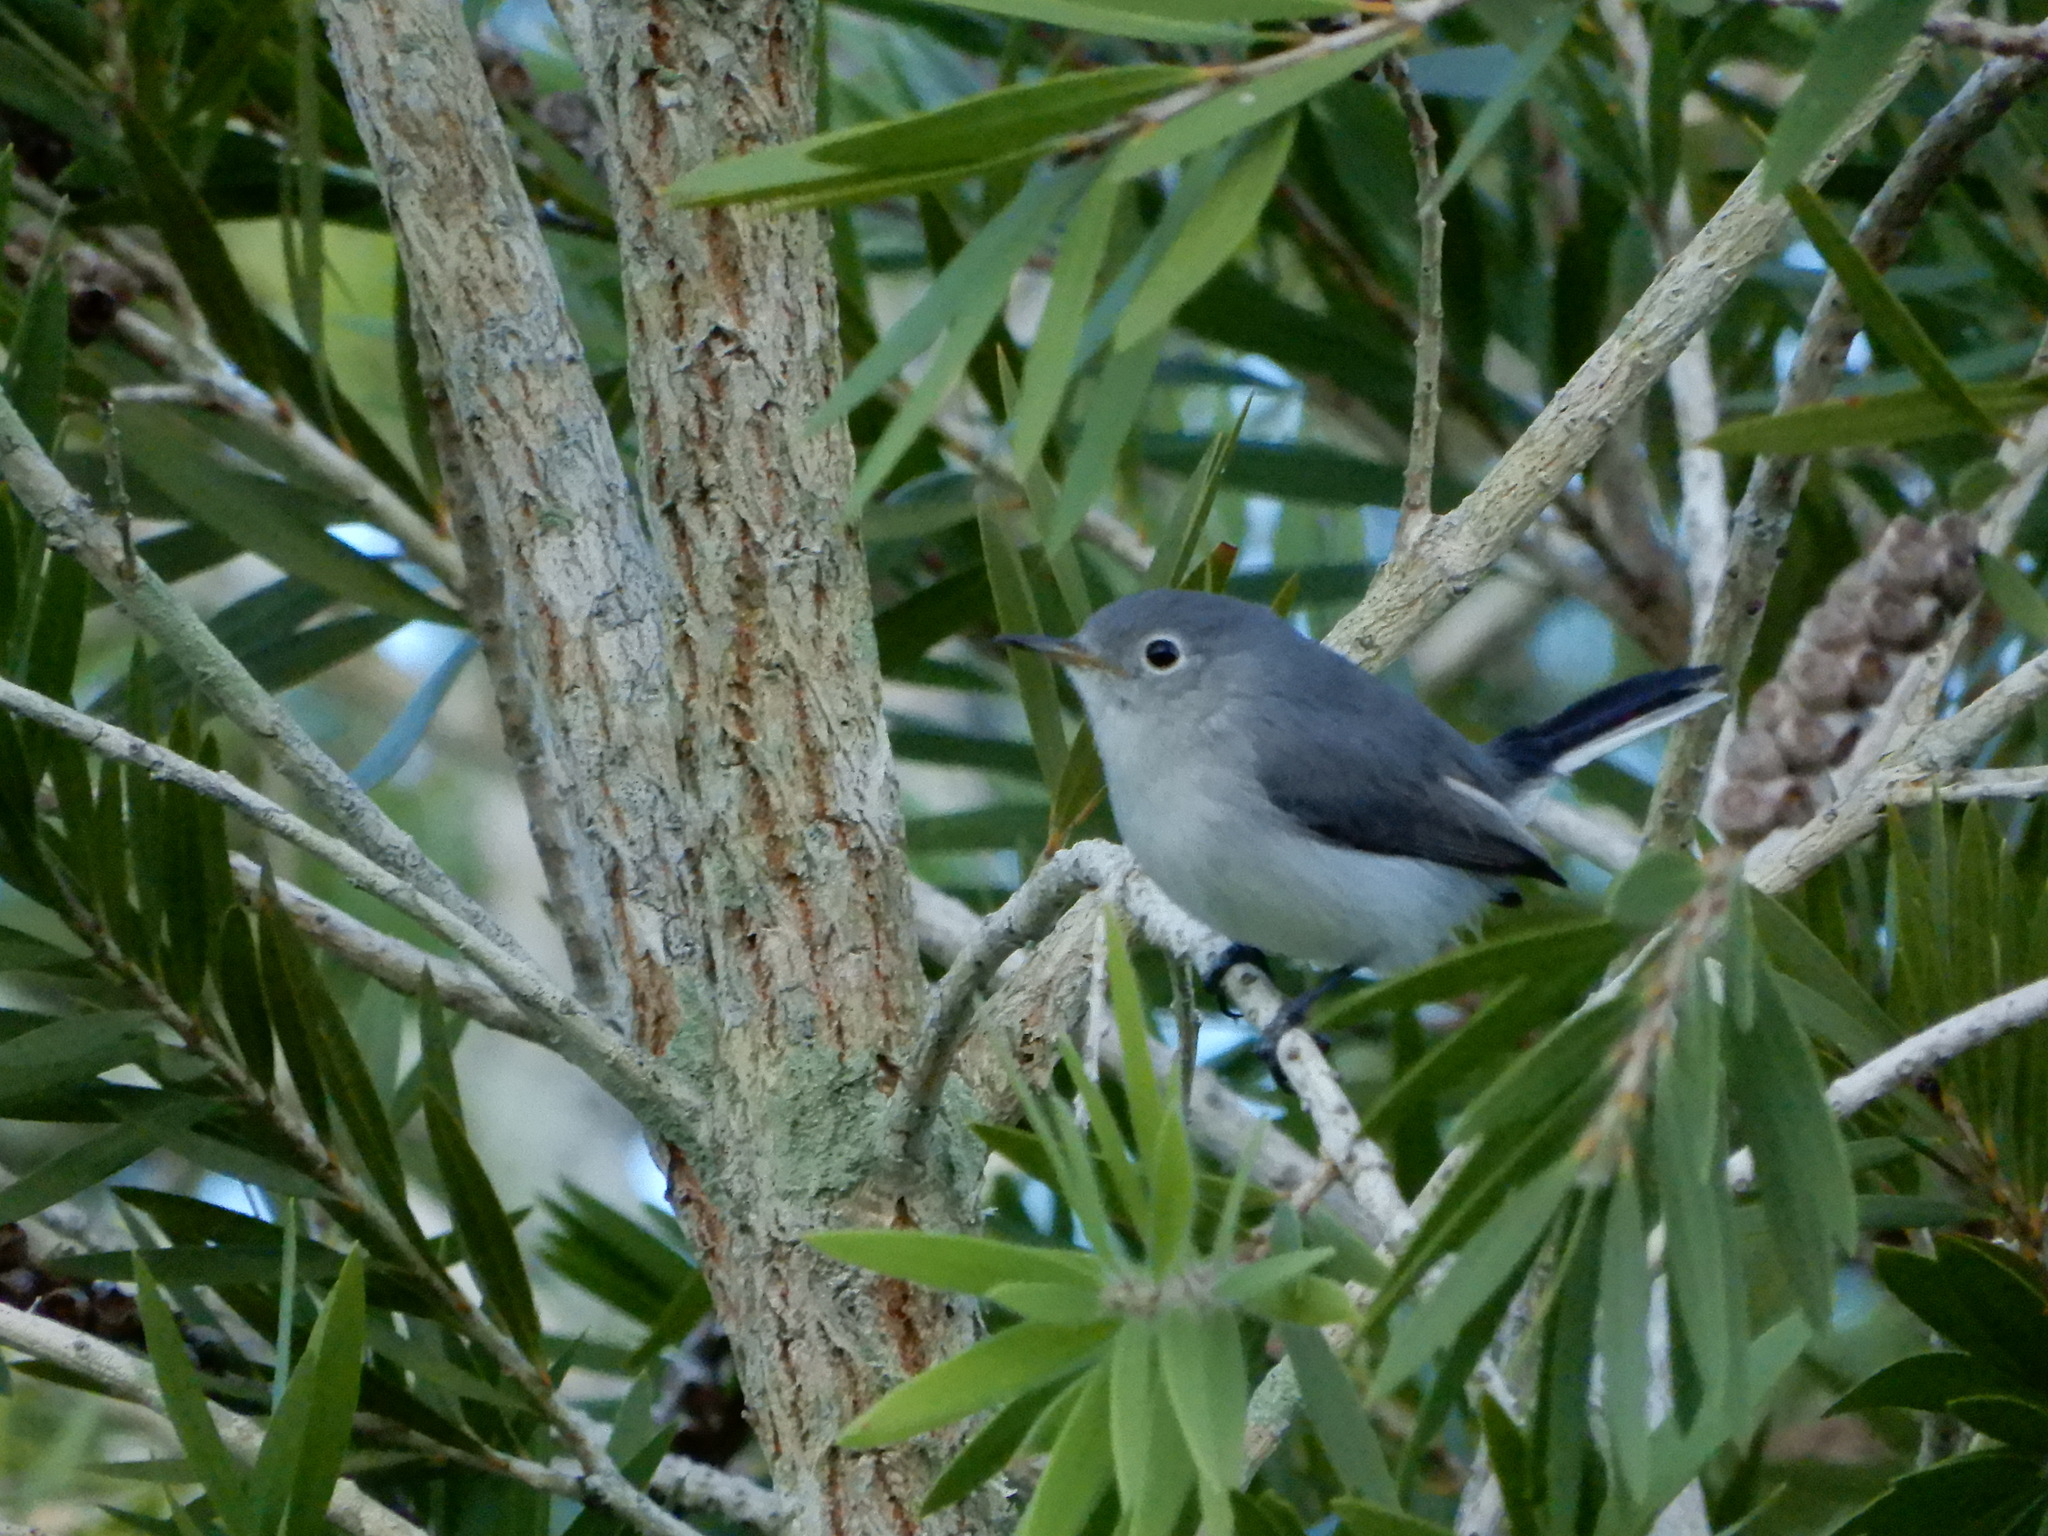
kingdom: Animalia
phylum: Chordata
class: Aves
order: Passeriformes
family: Polioptilidae
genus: Polioptila
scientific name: Polioptila caerulea
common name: Blue-gray gnatcatcher
